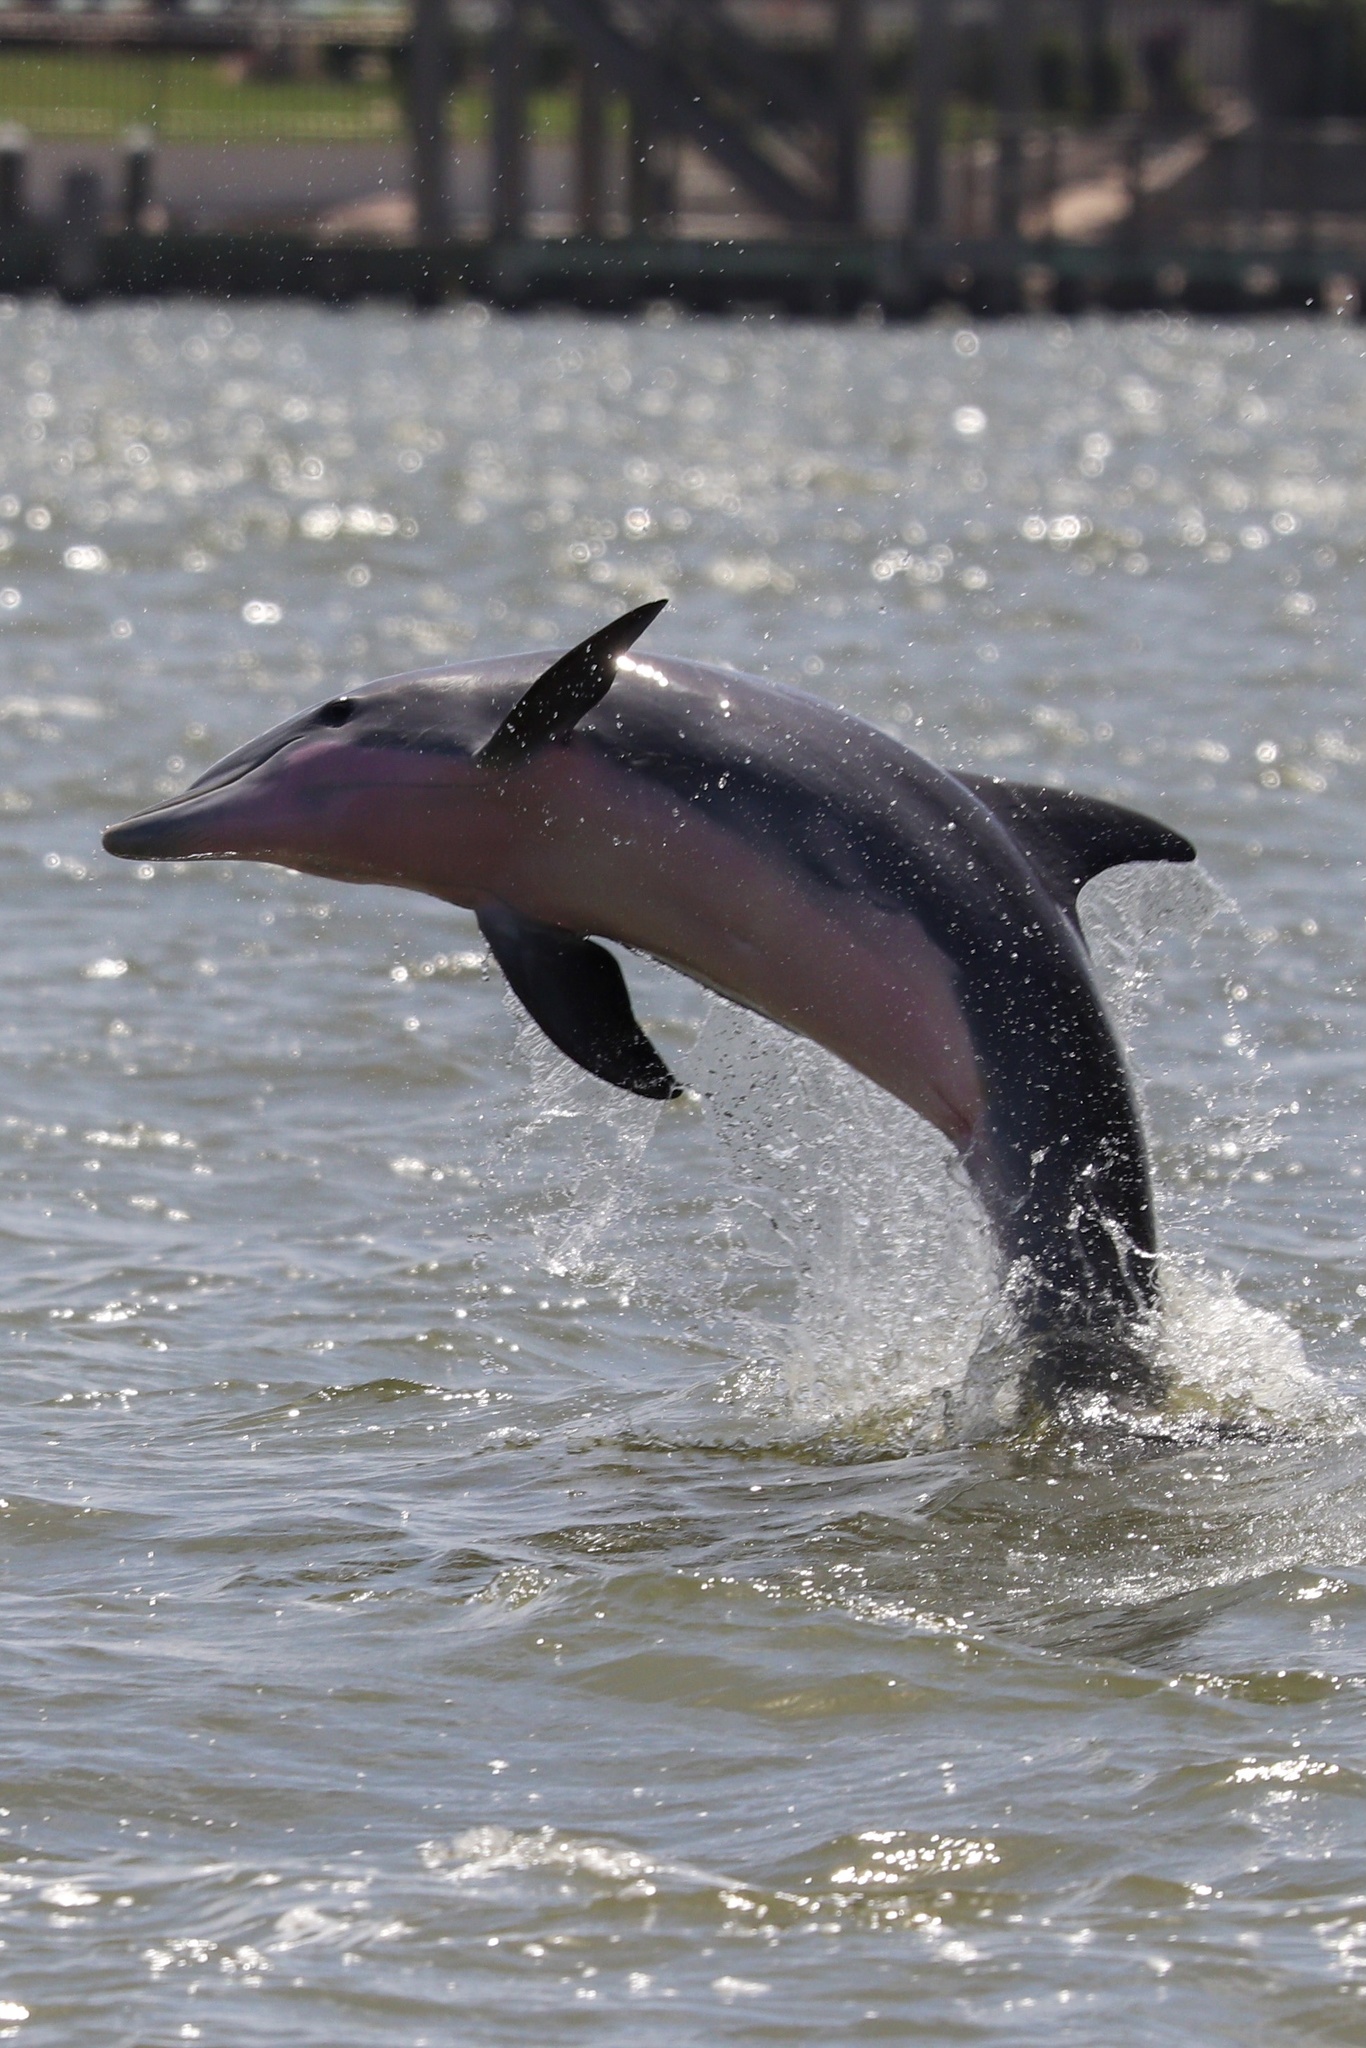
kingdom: Animalia
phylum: Chordata
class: Mammalia
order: Cetacea
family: Delphinidae
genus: Tursiops
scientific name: Tursiops truncatus
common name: Bottlenose dolphin
